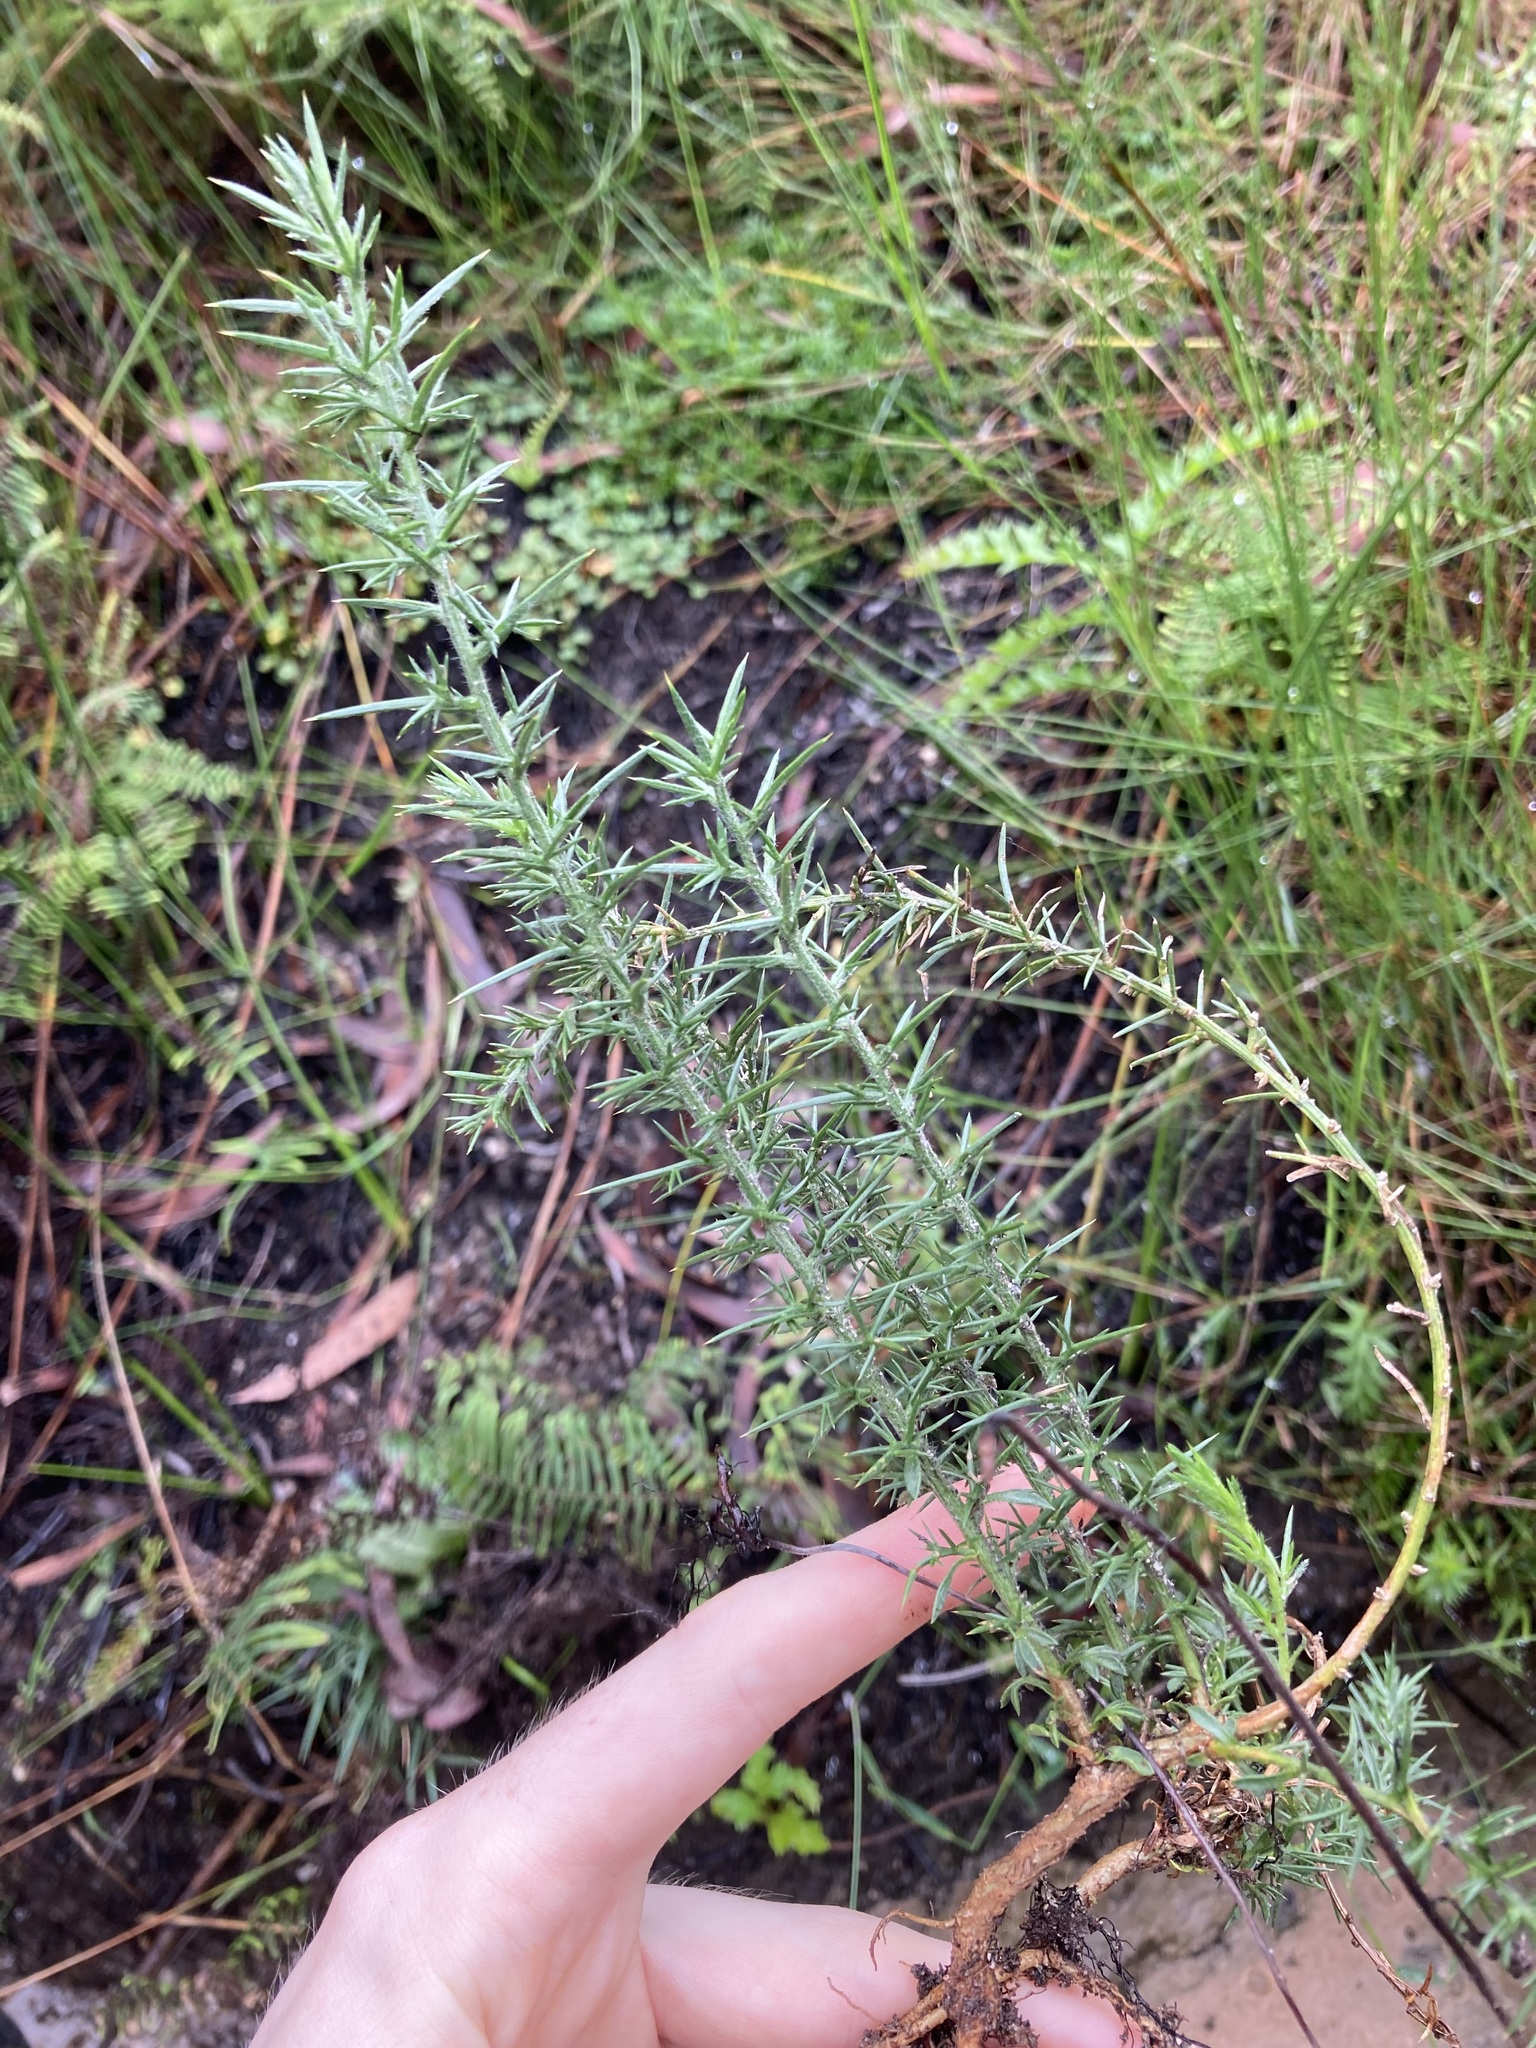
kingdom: Plantae
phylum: Tracheophyta
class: Magnoliopsida
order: Fabales
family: Fabaceae
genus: Ulex
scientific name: Ulex europaeus
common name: Common gorse
